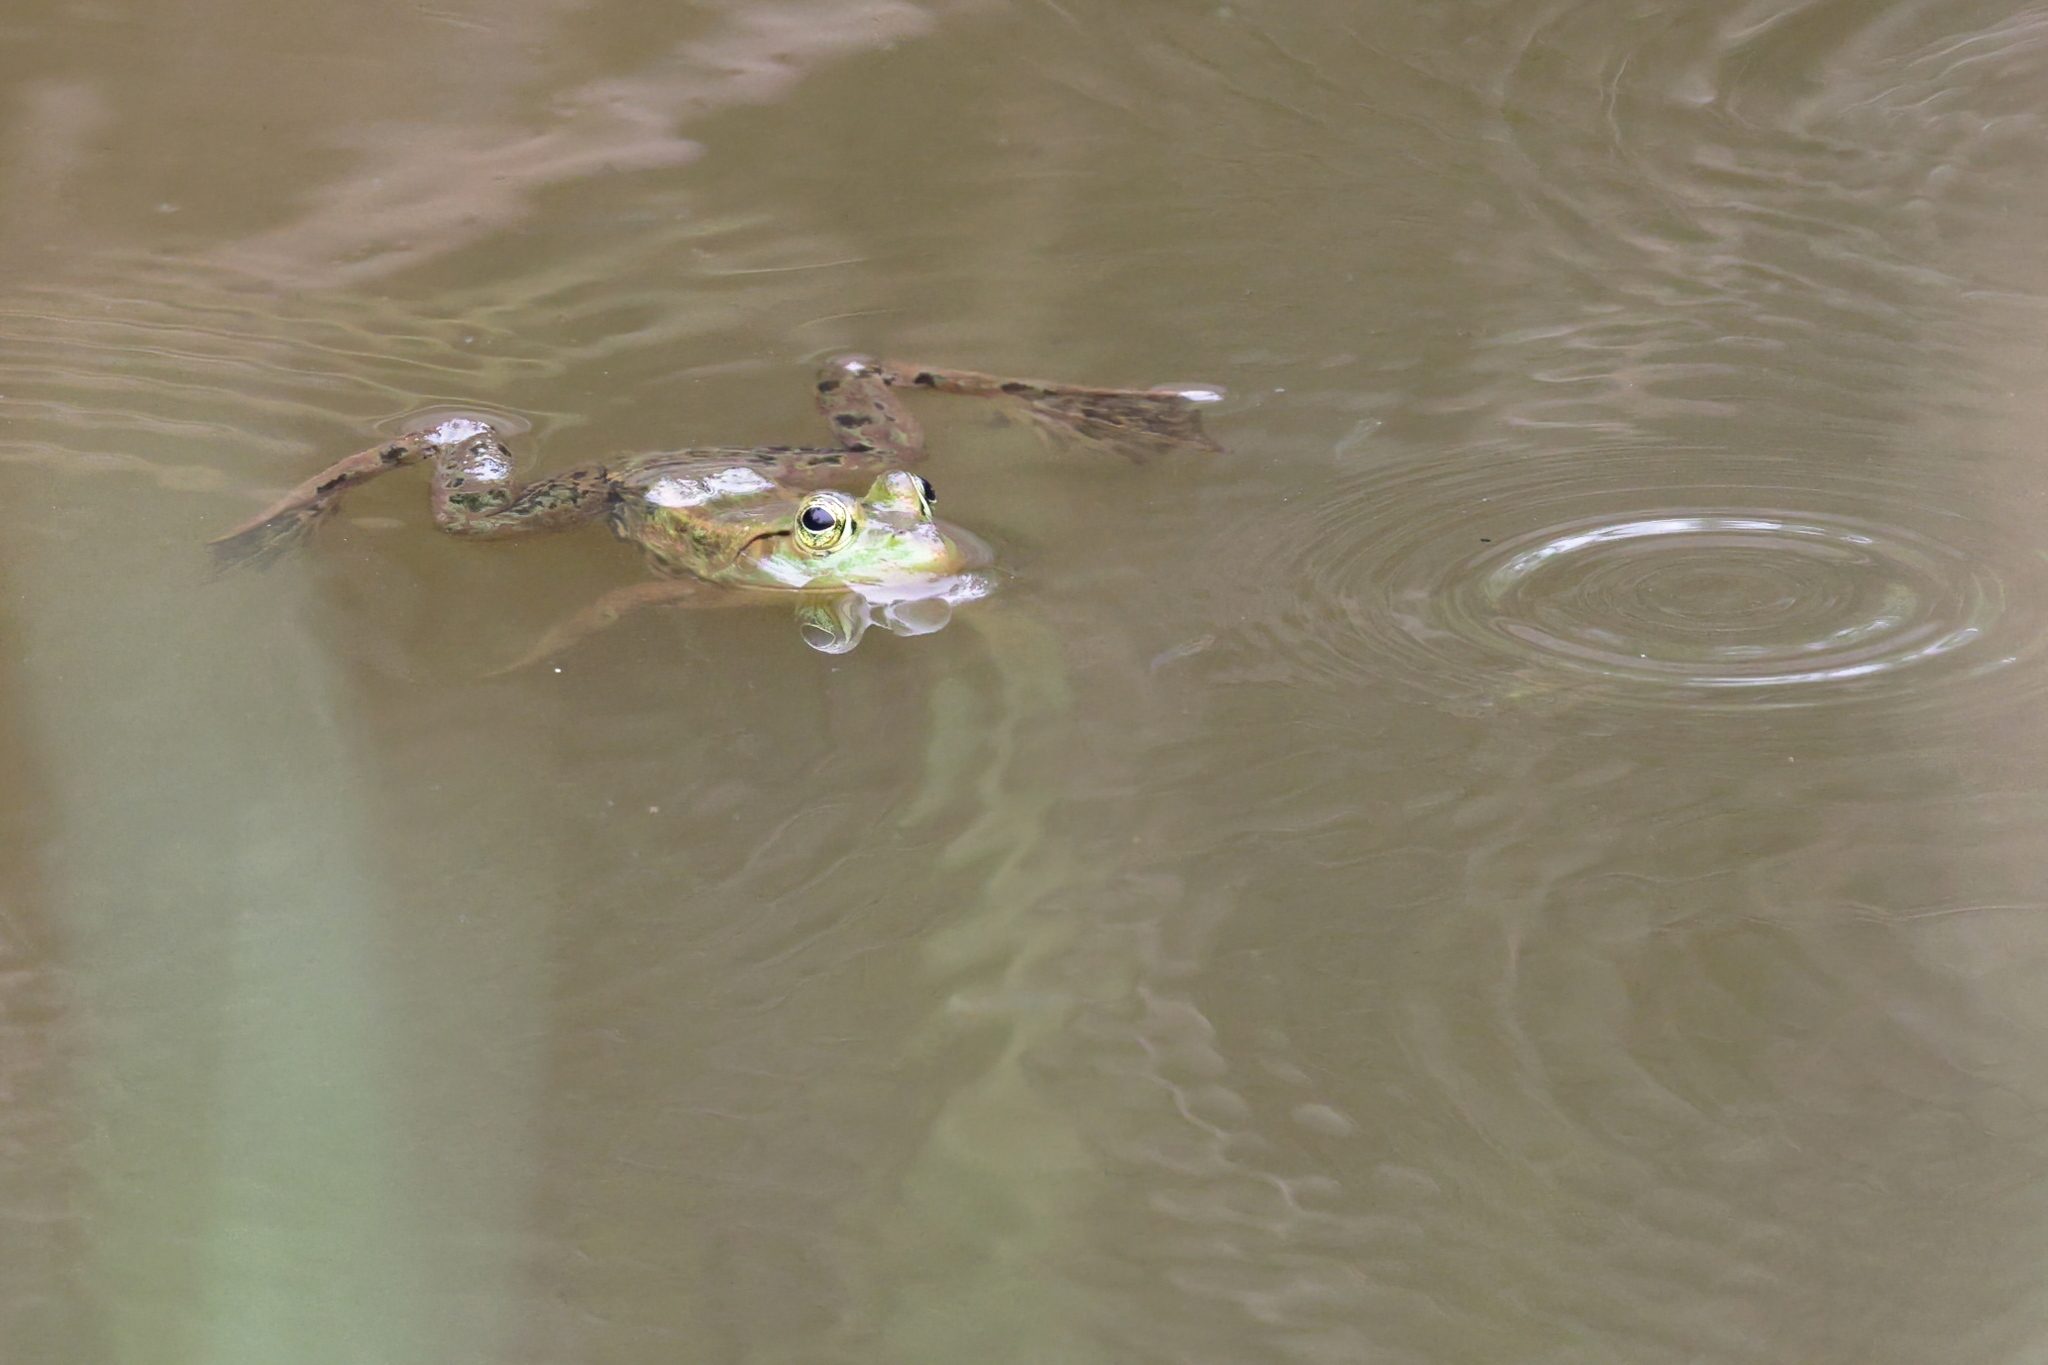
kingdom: Animalia
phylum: Chordata
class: Amphibia
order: Anura
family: Ranidae
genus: Lithobates
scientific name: Lithobates catesbeianus
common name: American bullfrog
